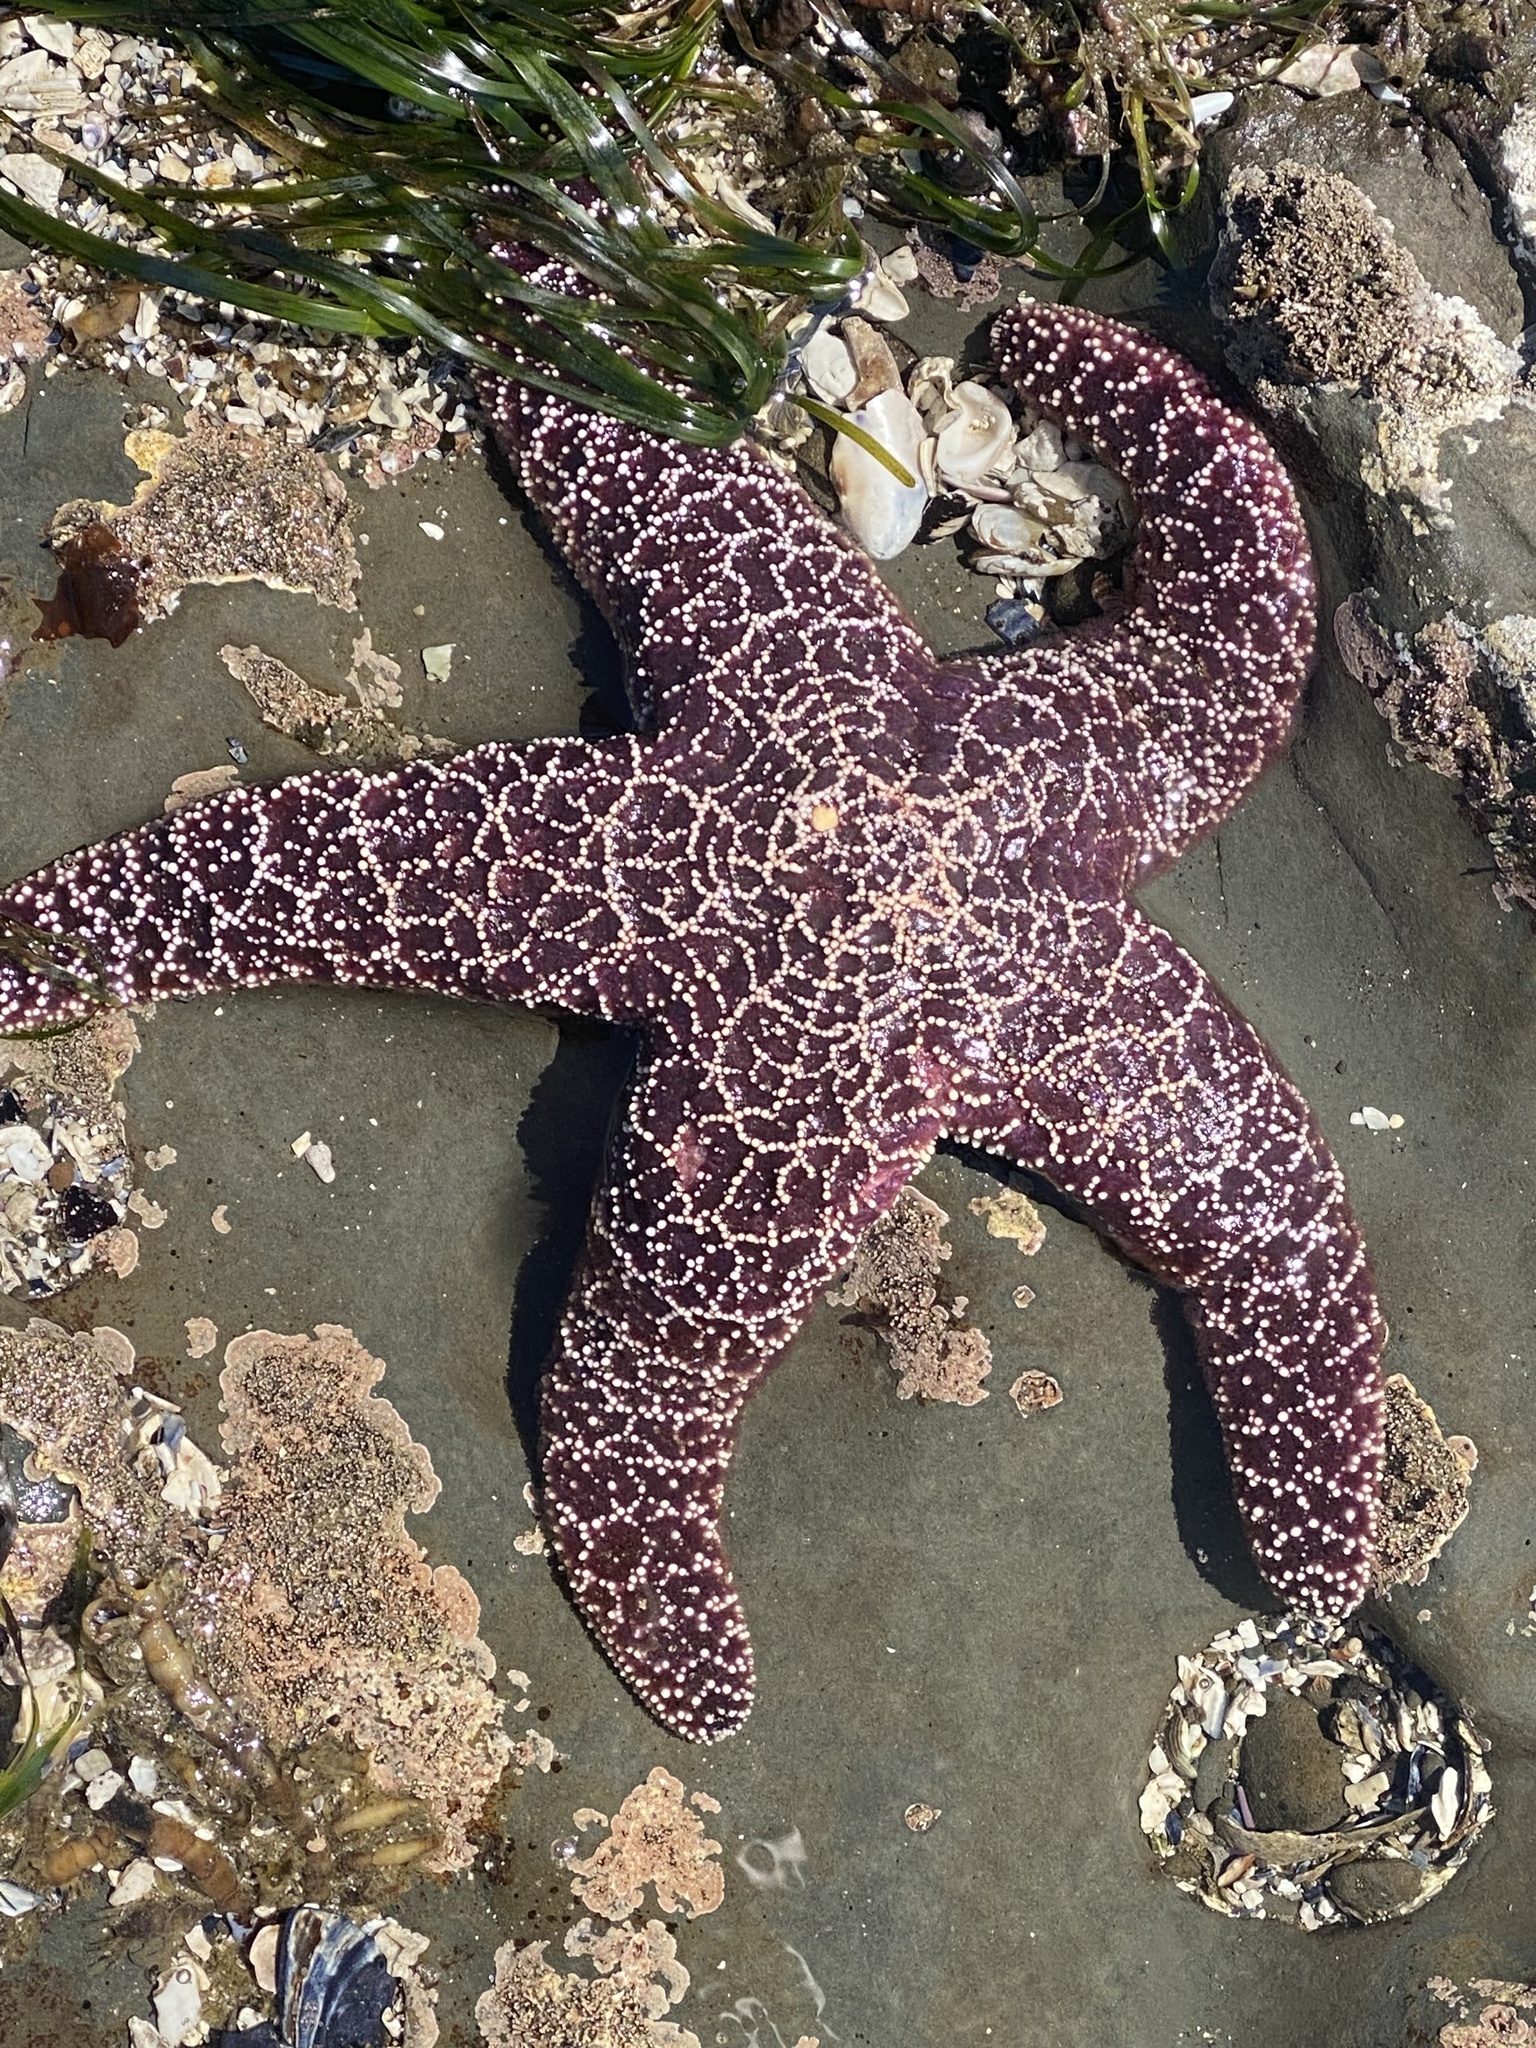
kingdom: Animalia
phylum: Echinodermata
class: Asteroidea
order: Forcipulatida
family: Asteriidae
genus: Pisaster
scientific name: Pisaster ochraceus
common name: Ochre stars
